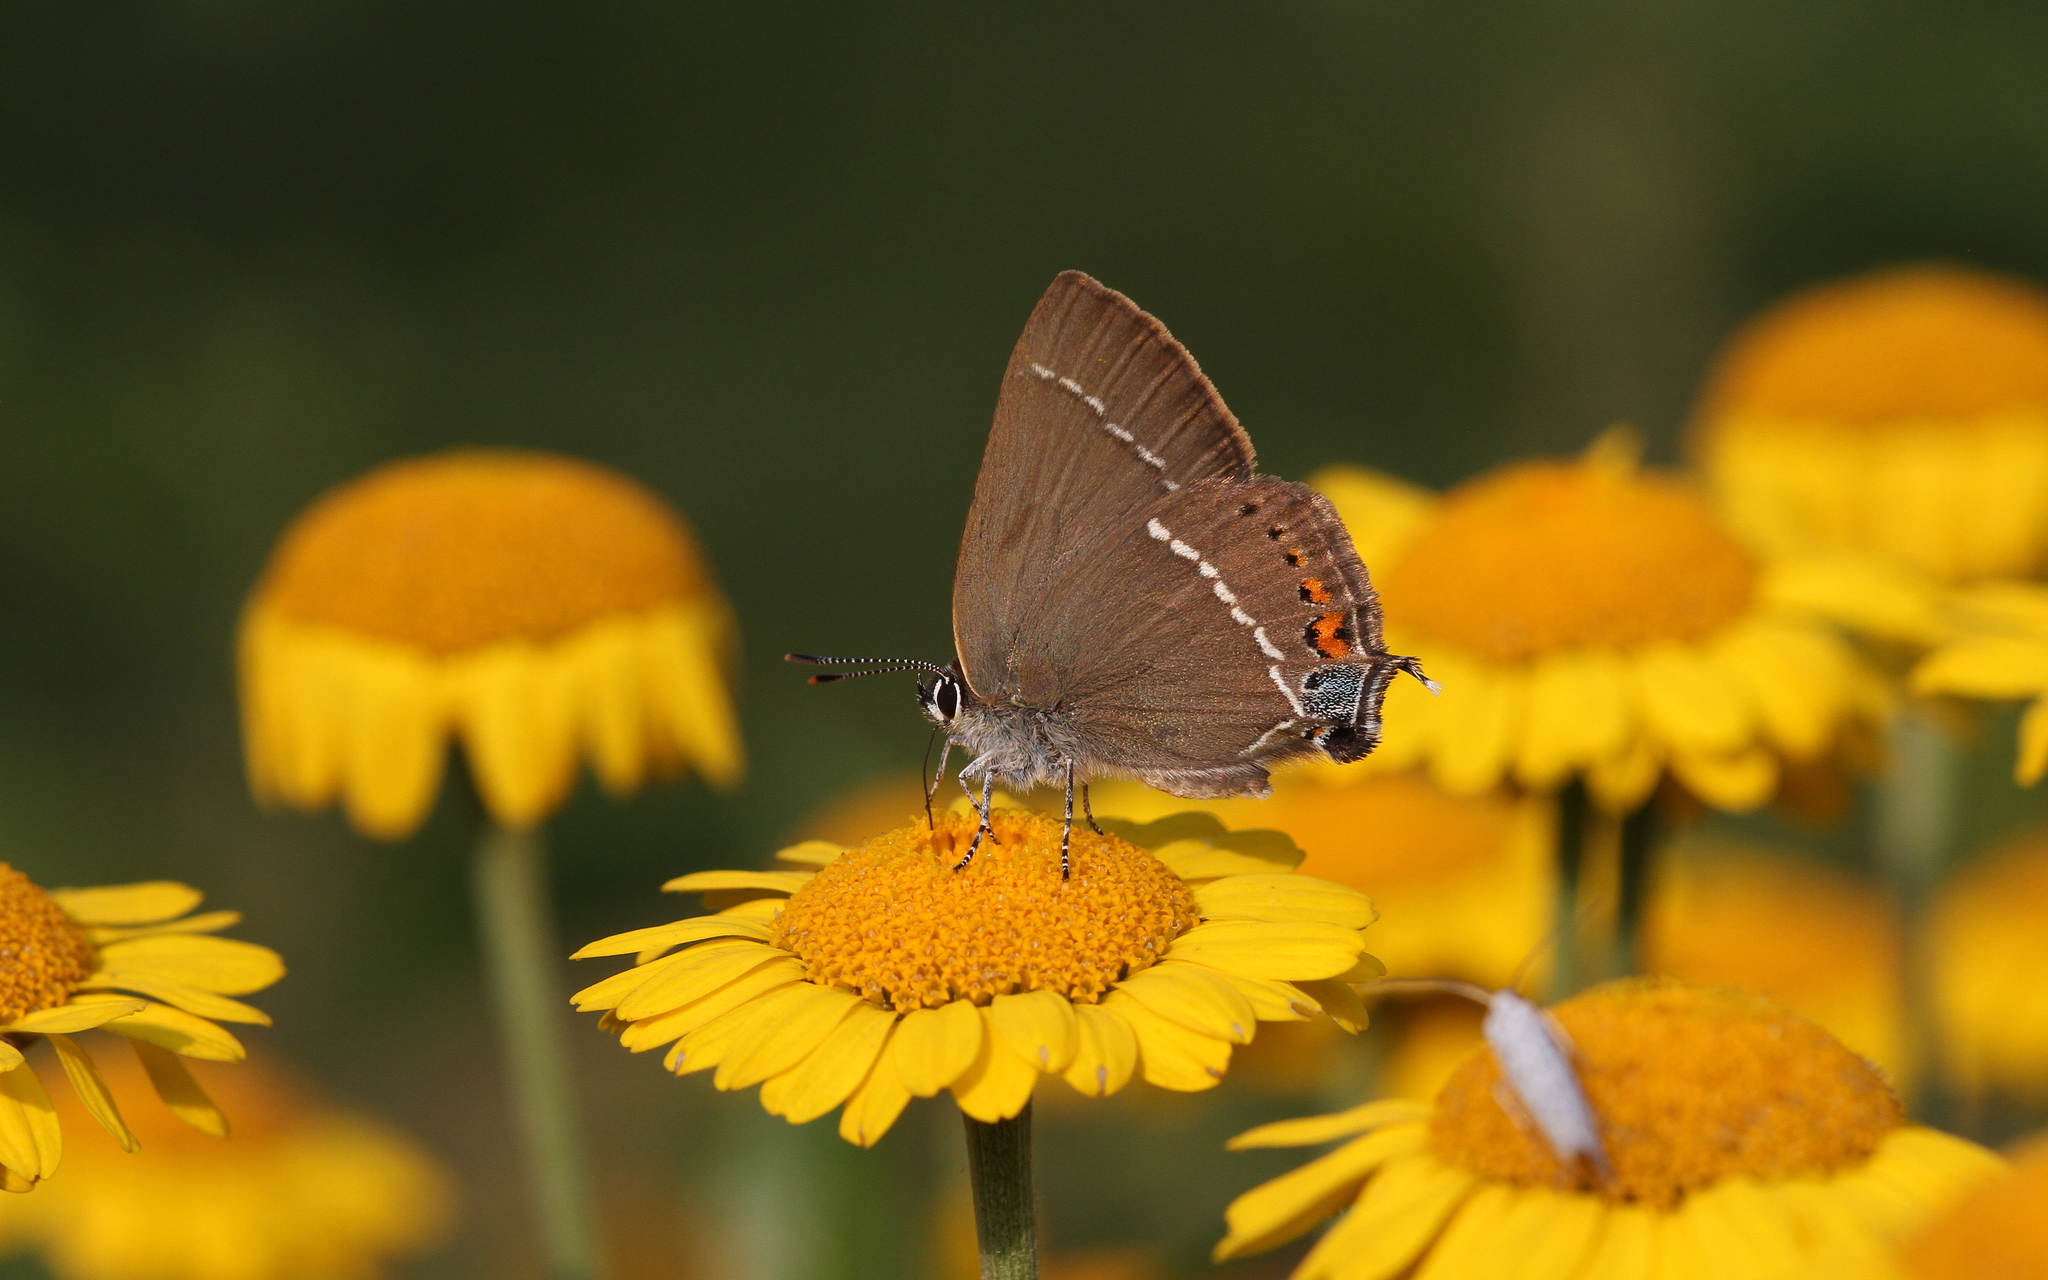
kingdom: Animalia
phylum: Arthropoda
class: Insecta
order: Lepidoptera
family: Lycaenidae
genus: Tuttiola
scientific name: Tuttiola spini
